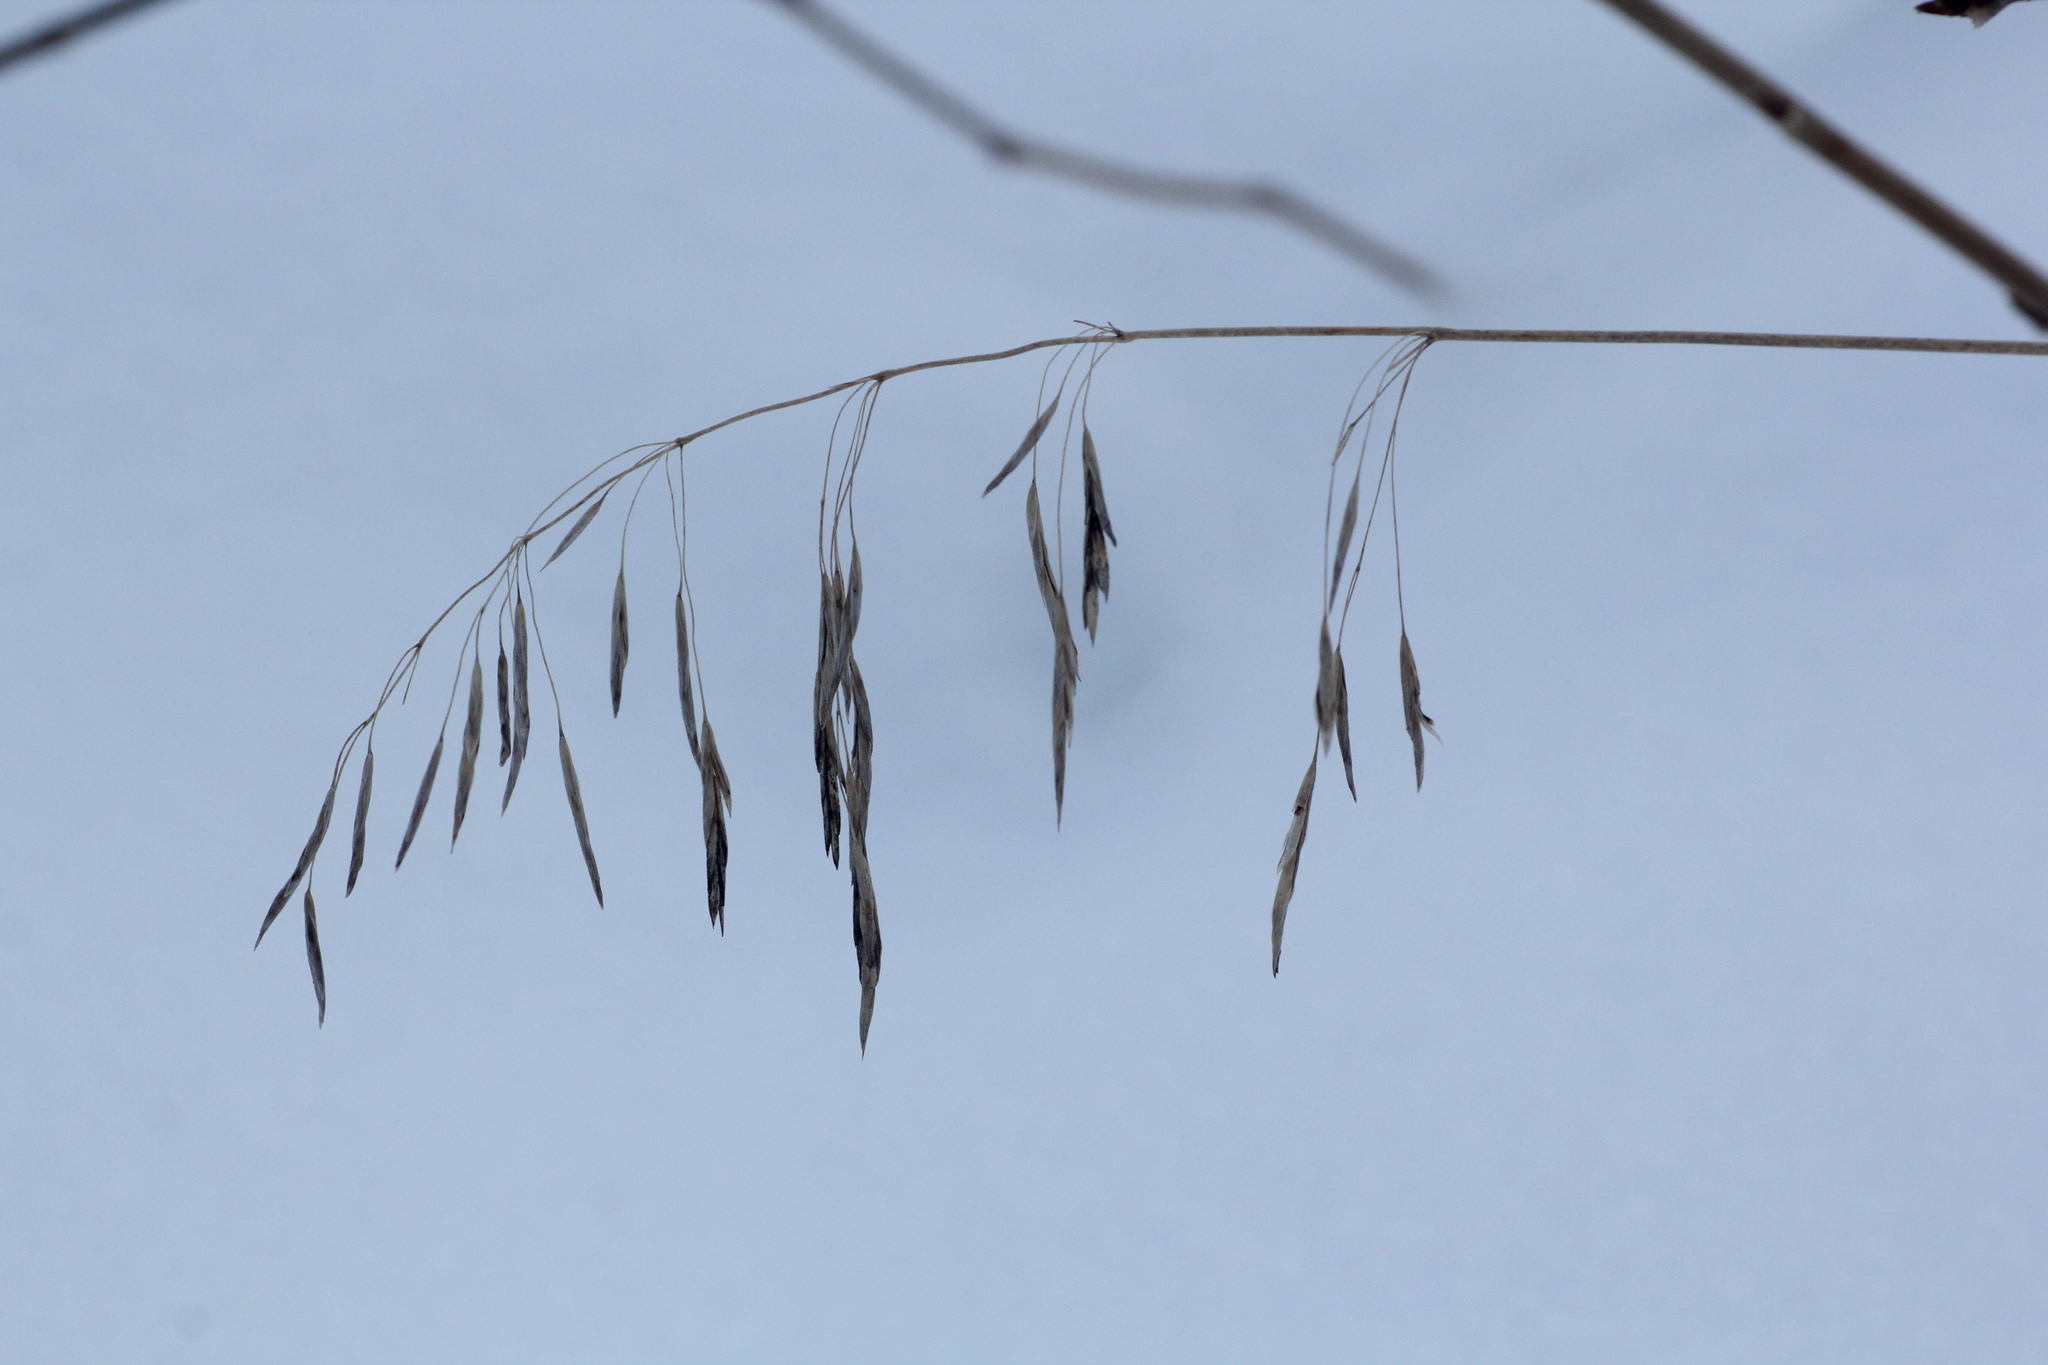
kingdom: Plantae
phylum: Tracheophyta
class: Liliopsida
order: Poales
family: Poaceae
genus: Bromus
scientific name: Bromus inermis
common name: Smooth brome
